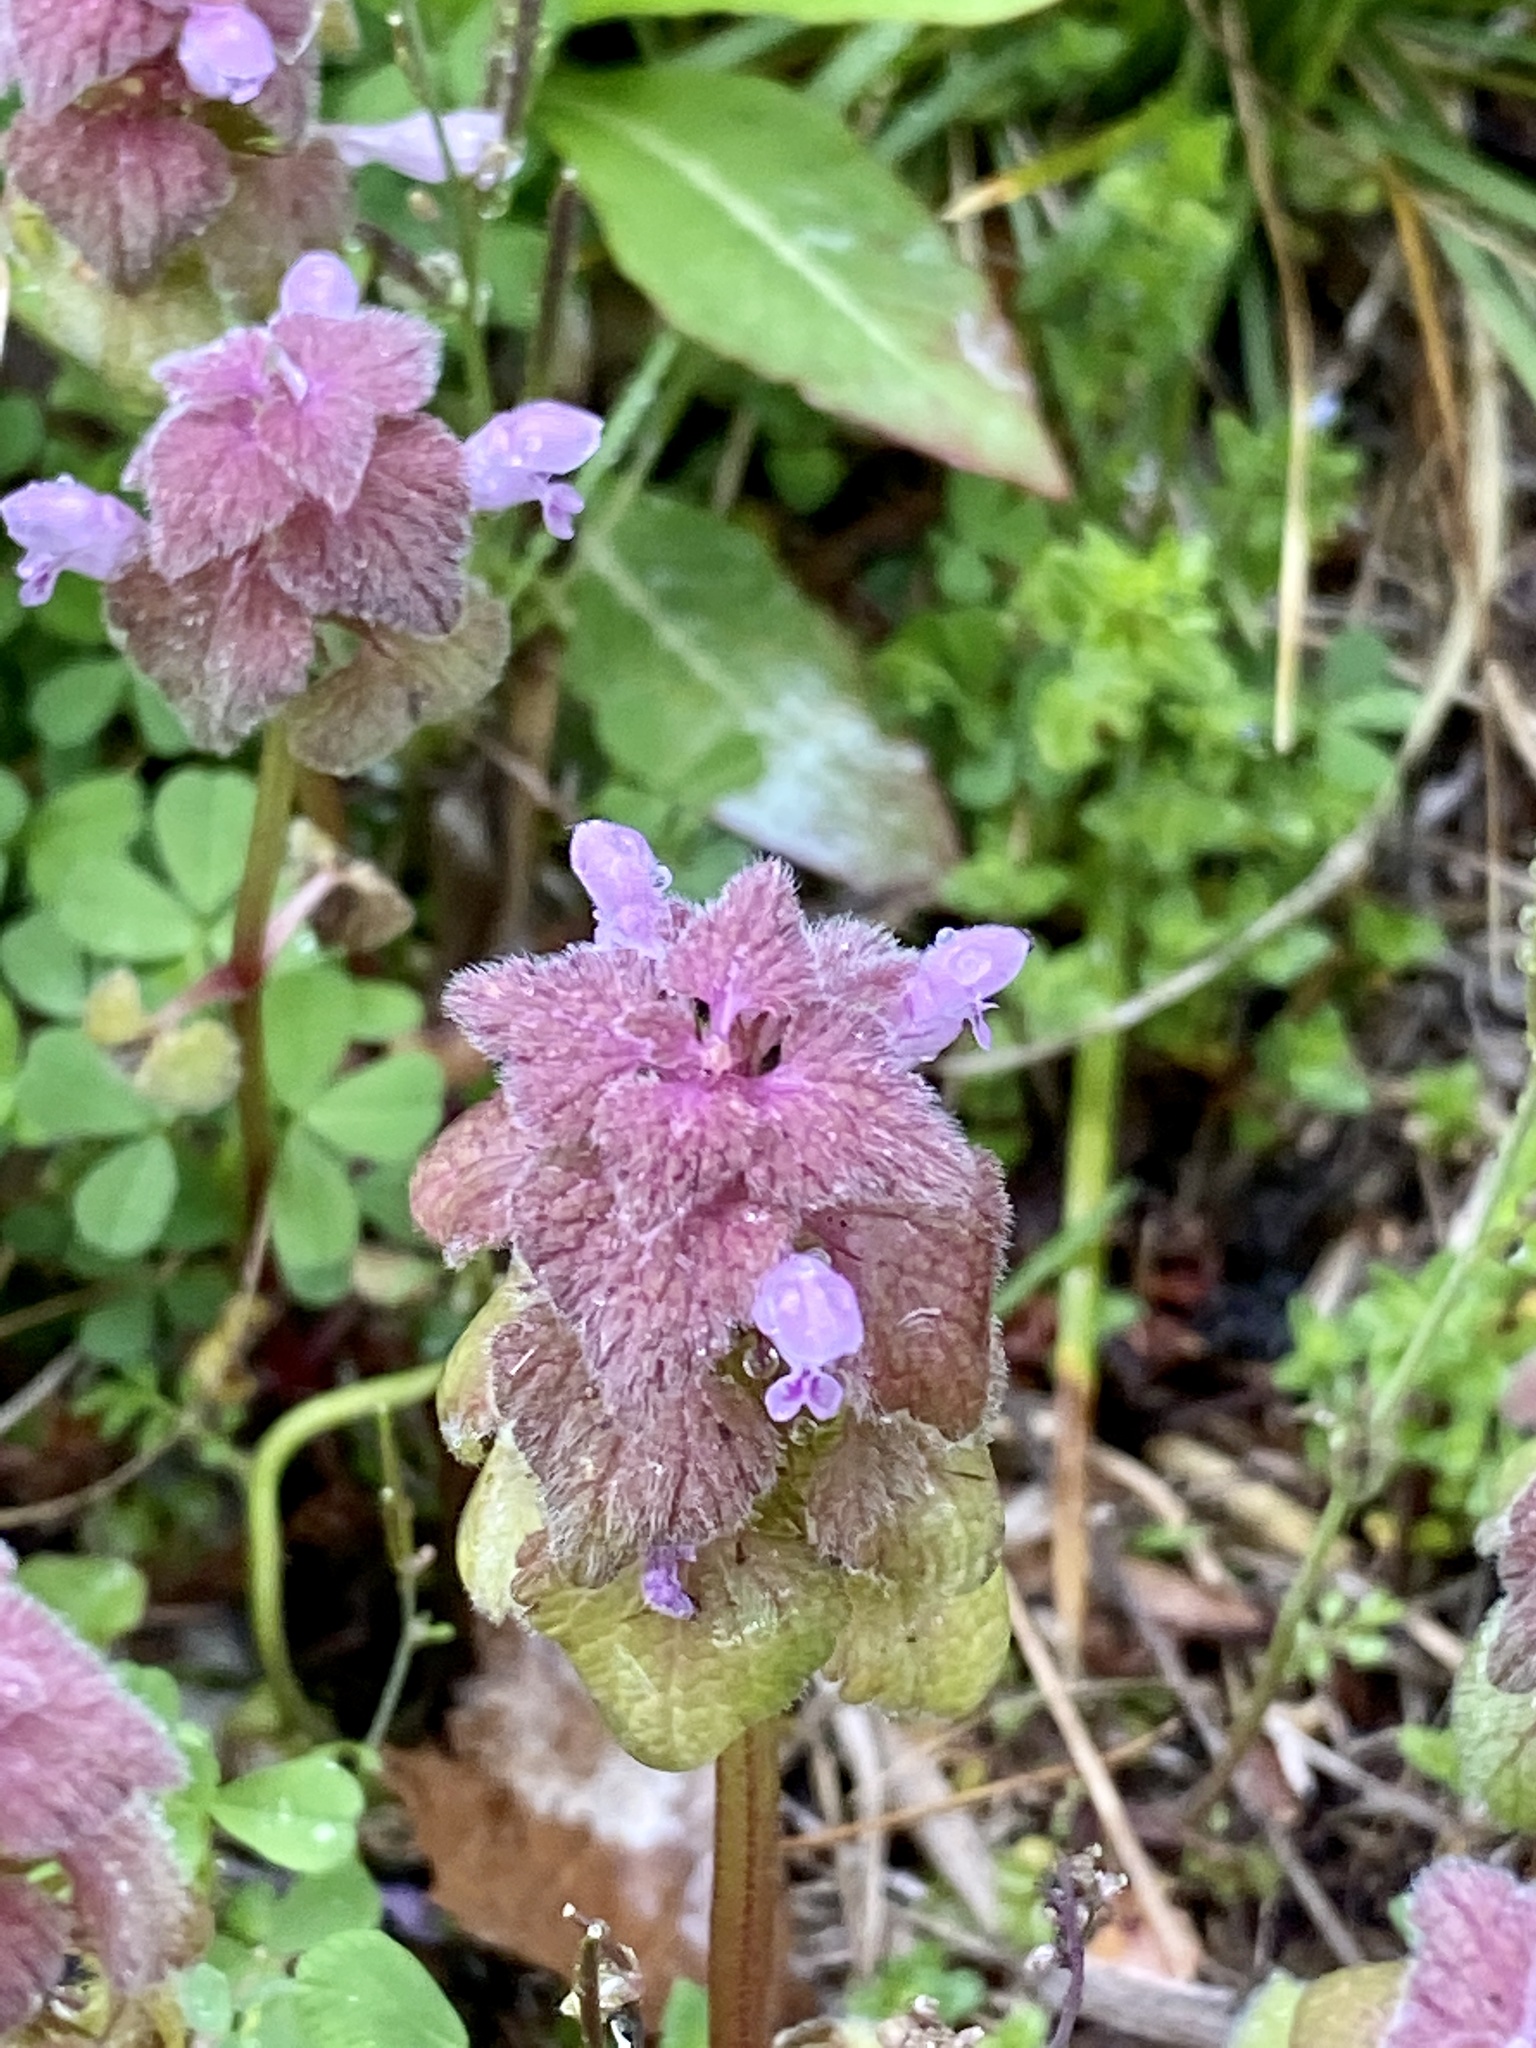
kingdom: Plantae
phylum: Tracheophyta
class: Magnoliopsida
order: Lamiales
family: Lamiaceae
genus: Lamium
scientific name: Lamium purpureum
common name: Red dead-nettle
